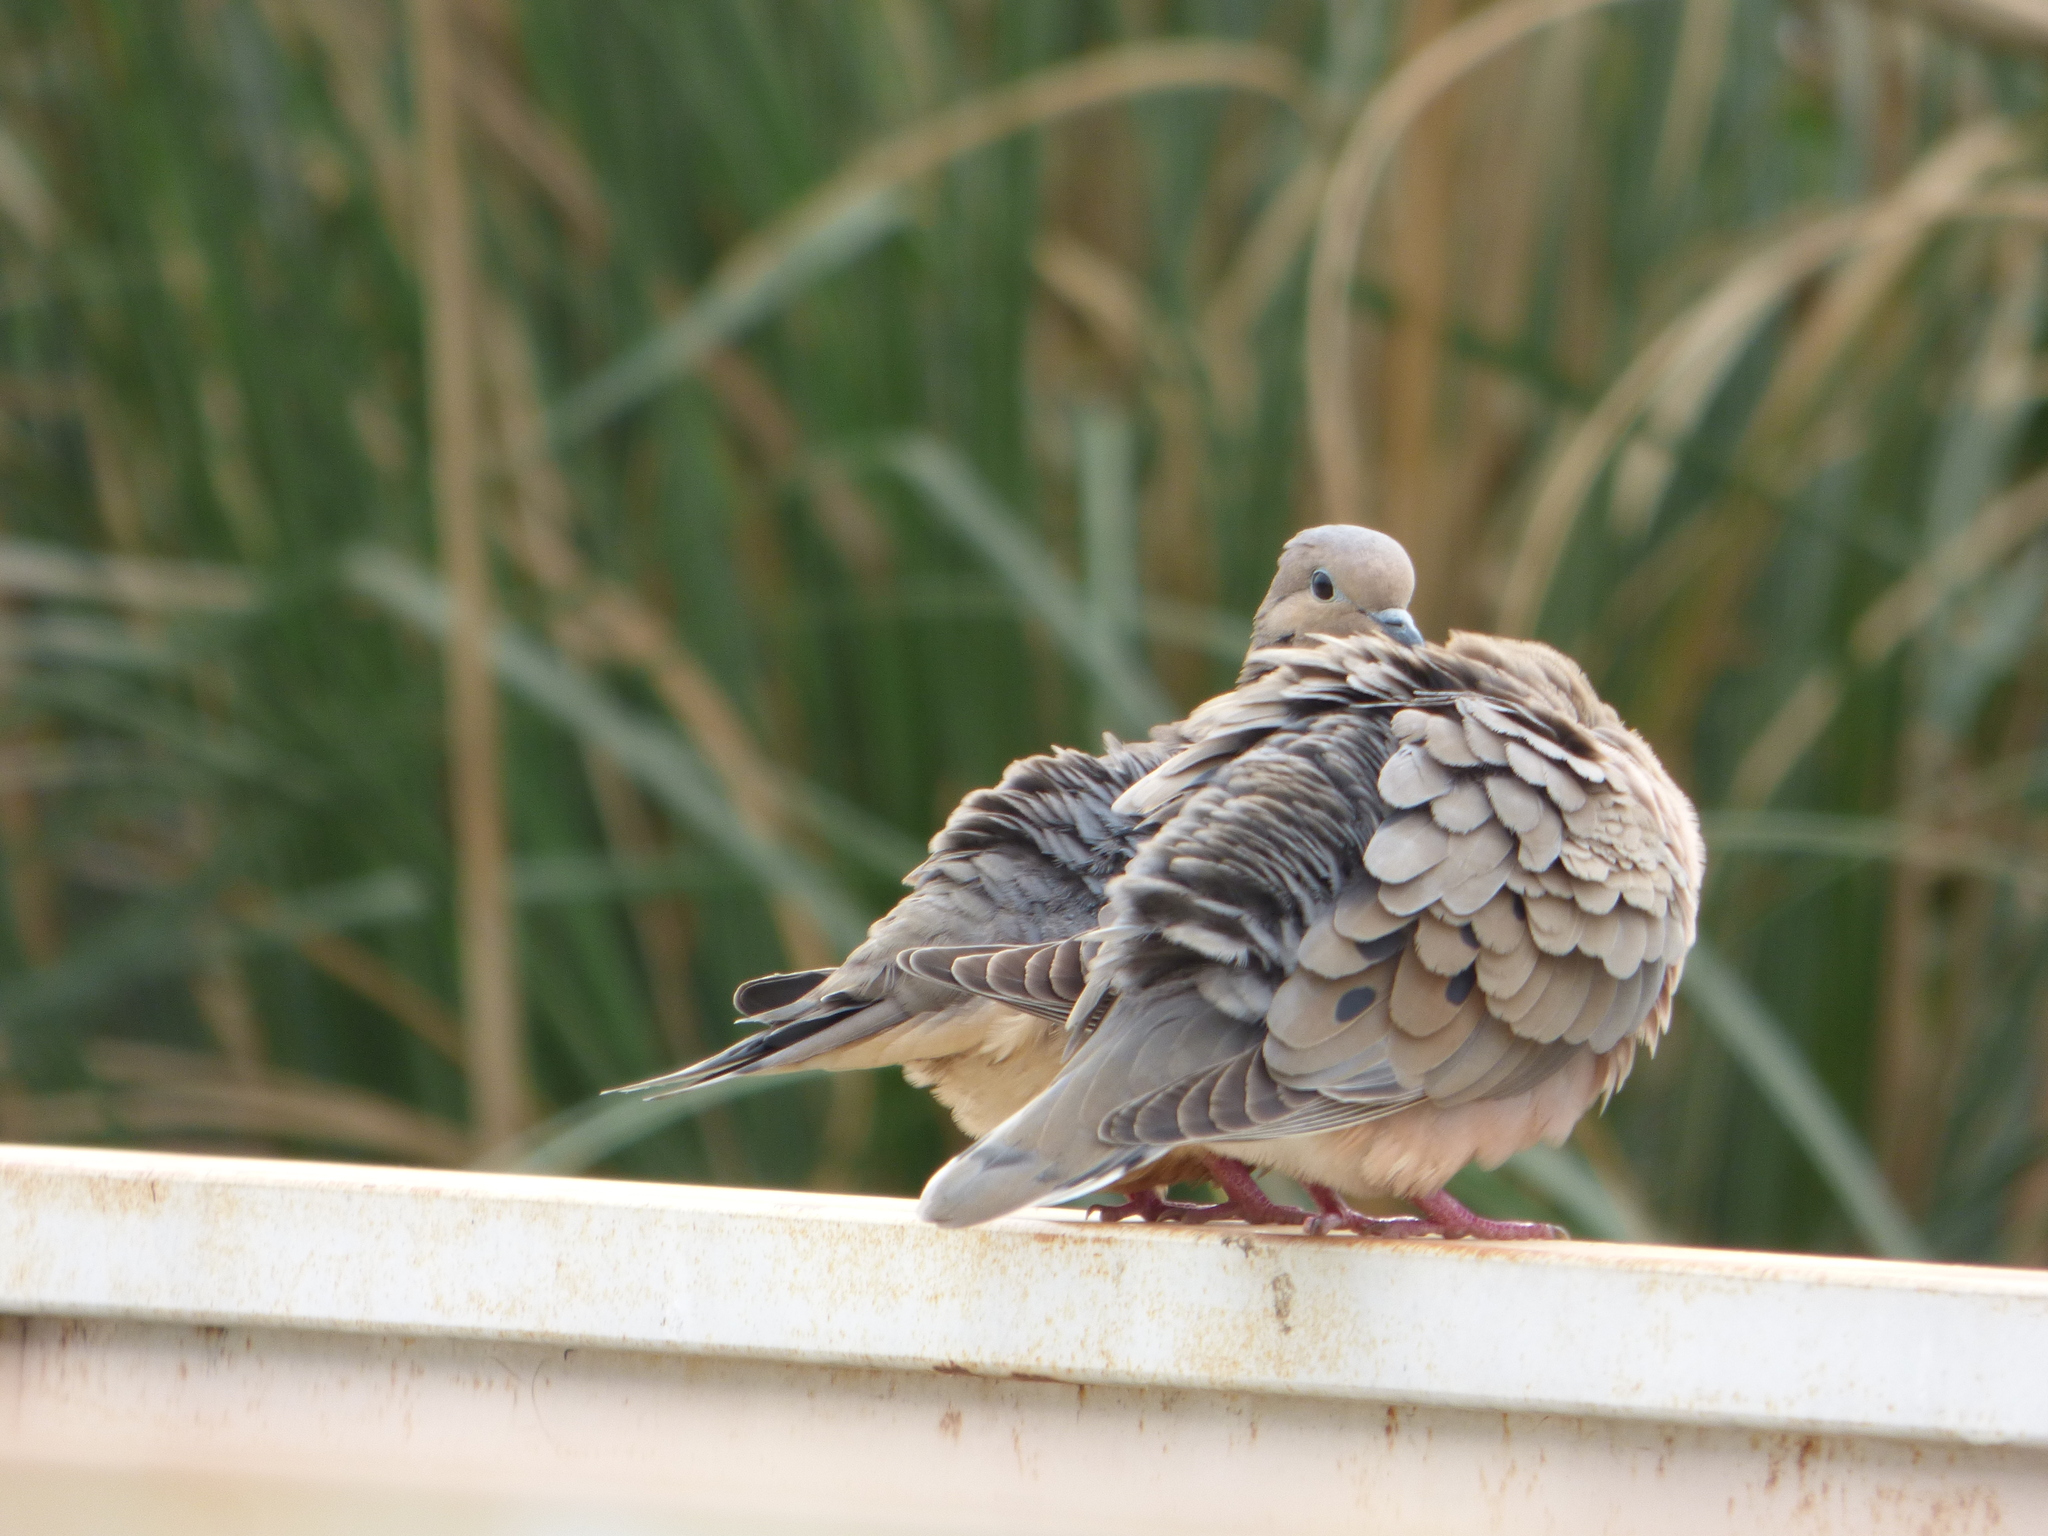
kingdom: Animalia
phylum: Chordata
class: Aves
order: Columbiformes
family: Columbidae
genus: Zenaida
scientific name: Zenaida auriculata
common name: Eared dove
